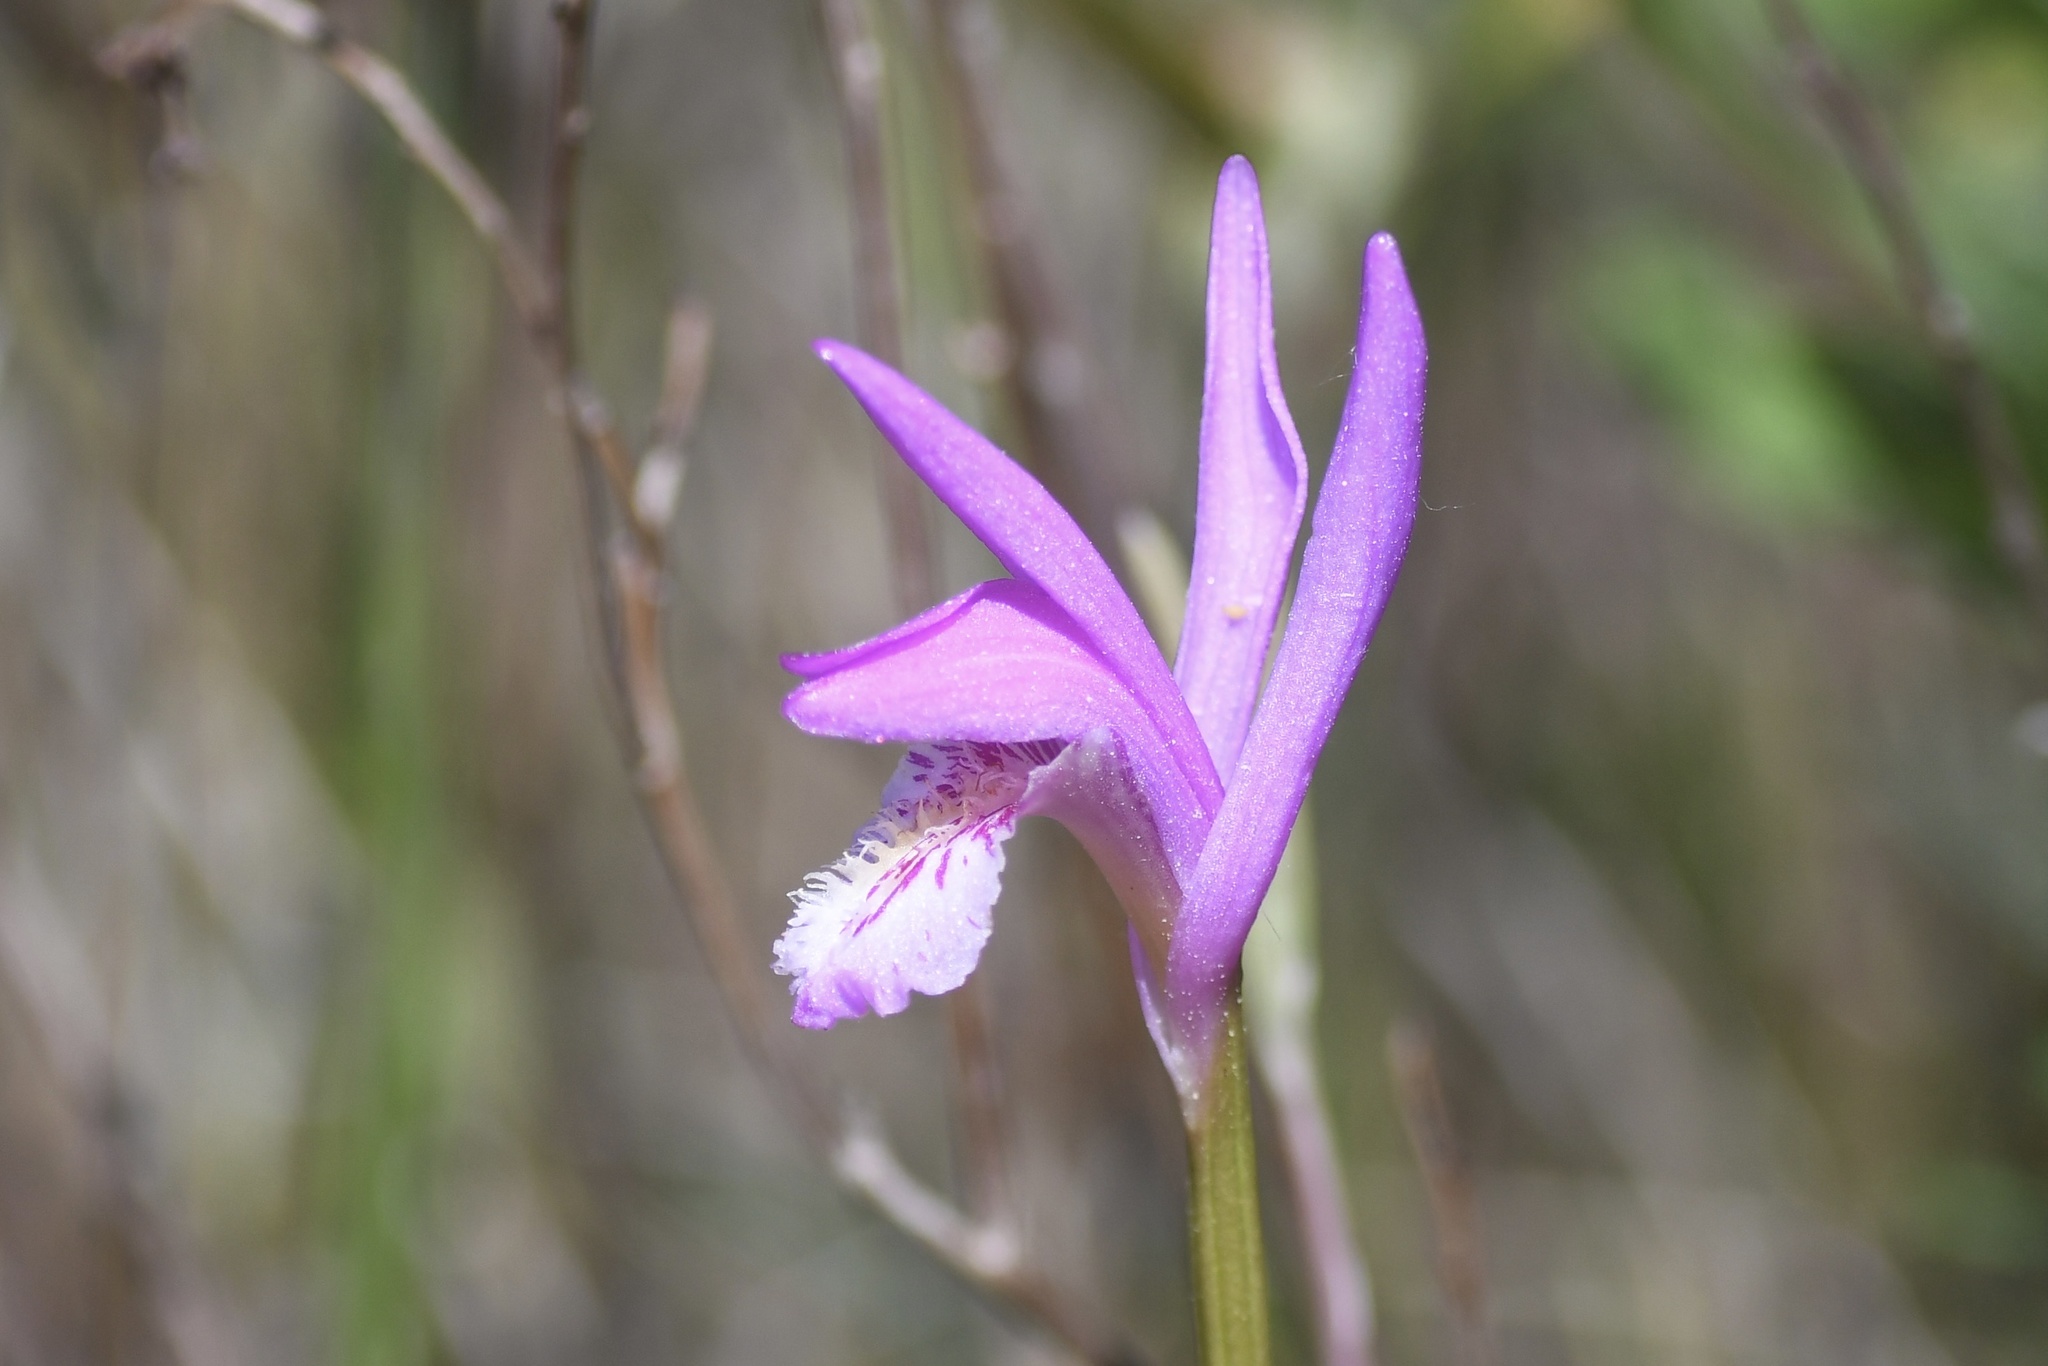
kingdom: Plantae
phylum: Tracheophyta
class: Liliopsida
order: Asparagales
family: Orchidaceae
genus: Arethusa
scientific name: Arethusa bulbosa
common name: Arethusa
